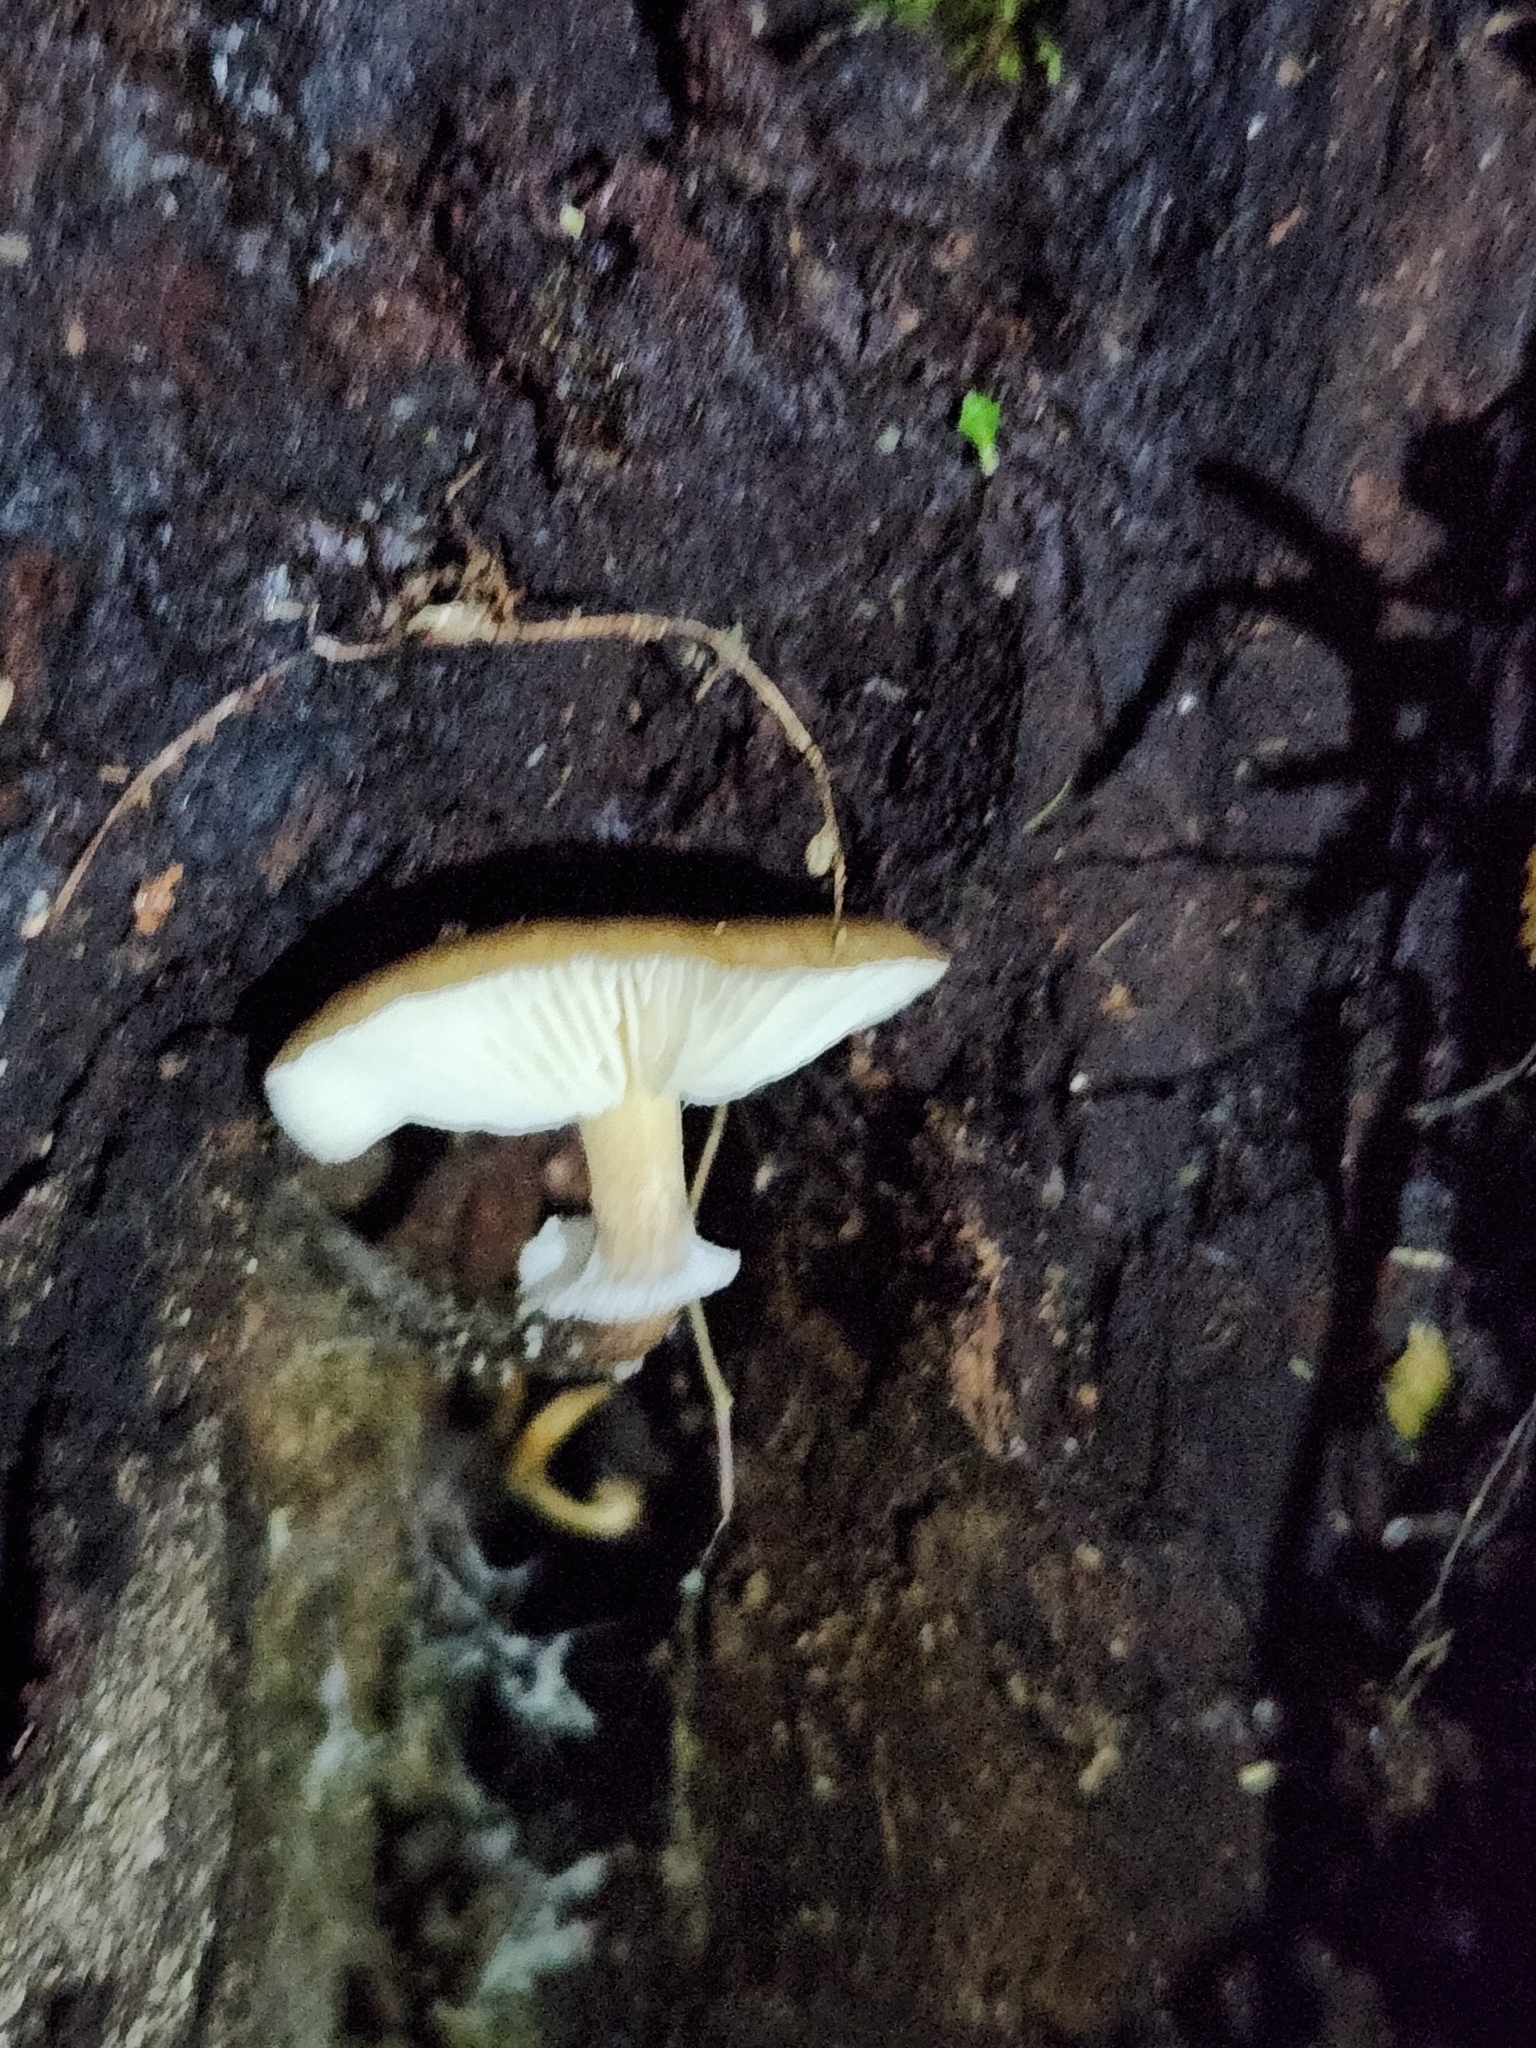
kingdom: Fungi
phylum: Basidiomycota
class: Agaricomycetes
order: Agaricales
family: Physalacriaceae
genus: Armillaria
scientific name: Armillaria novae-zelandiae
